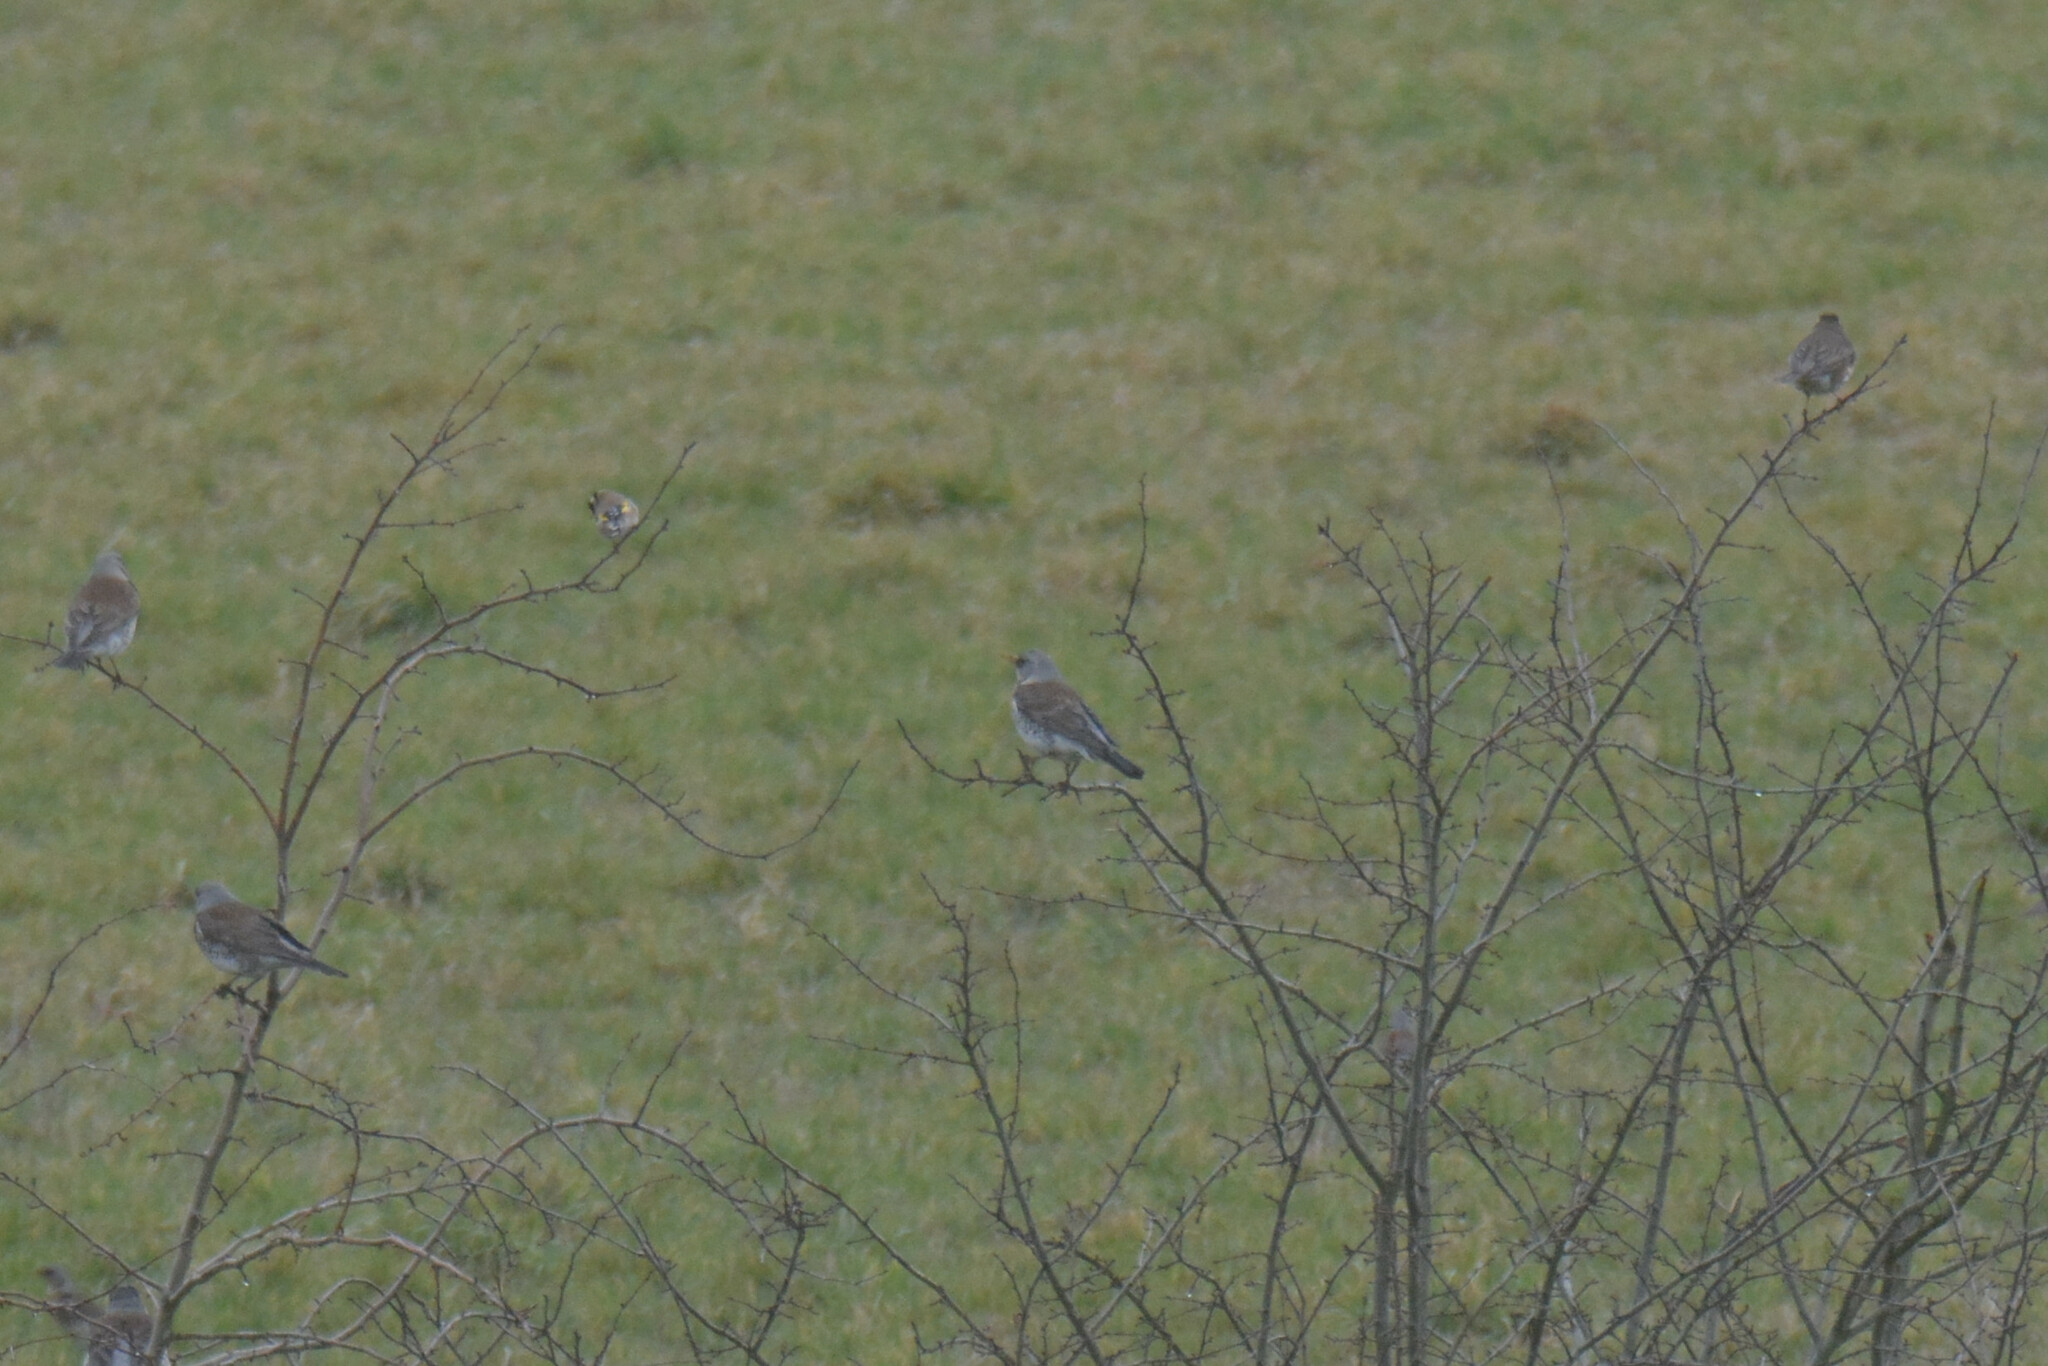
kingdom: Animalia
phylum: Chordata
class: Aves
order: Passeriformes
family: Turdidae
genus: Turdus
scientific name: Turdus pilaris
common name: Fieldfare
